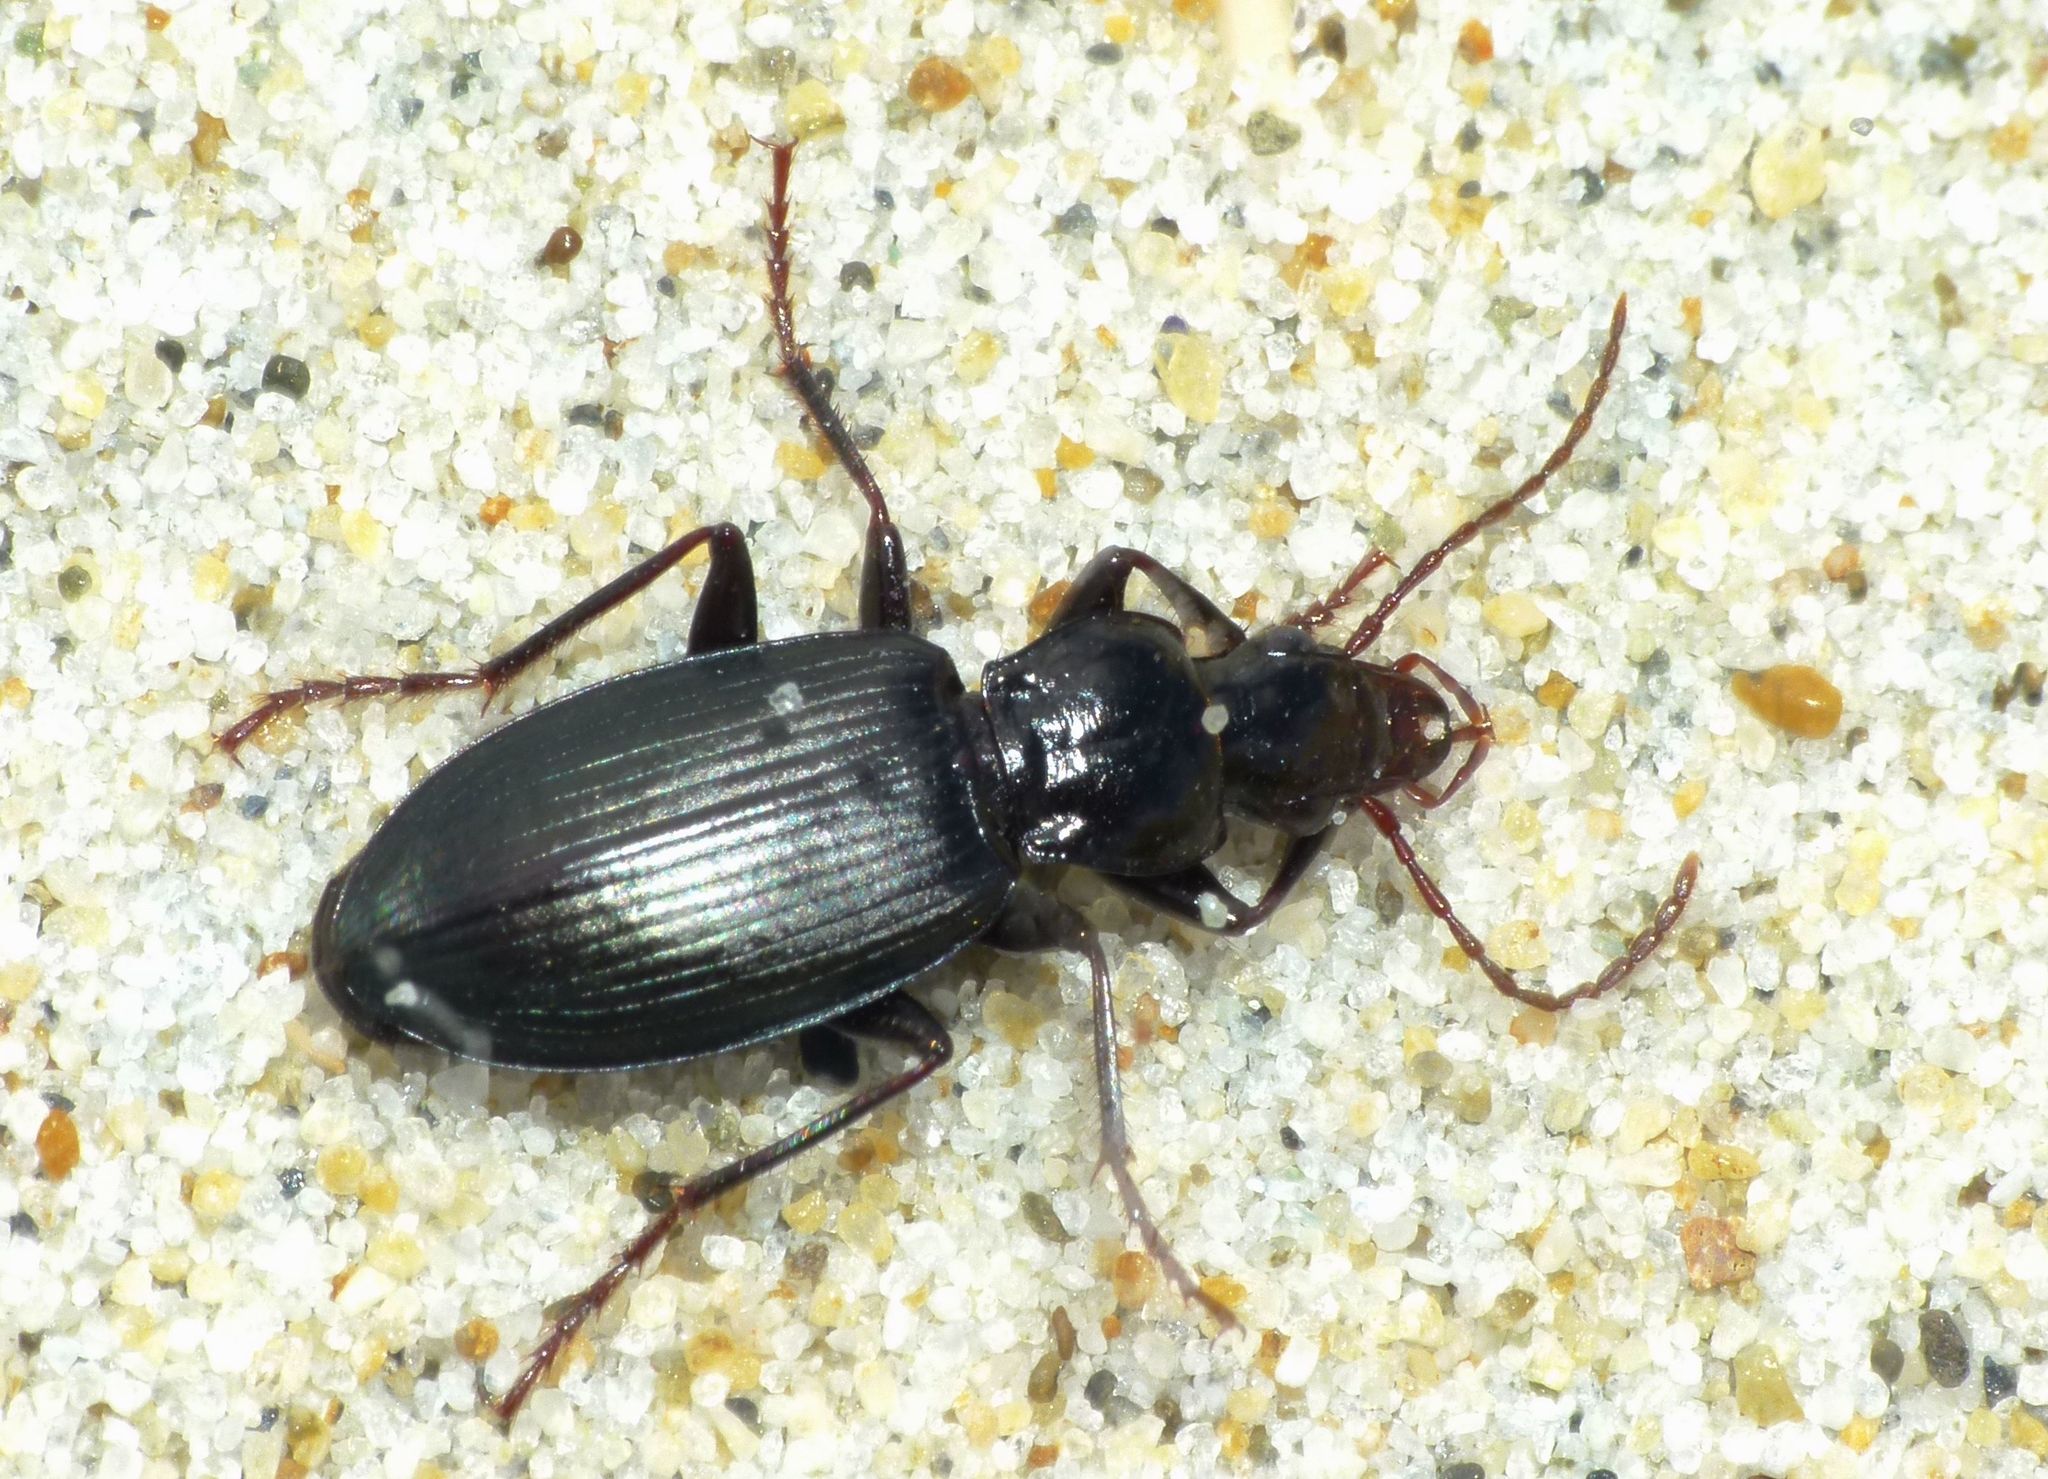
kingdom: Animalia
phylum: Arthropoda
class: Insecta
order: Coleoptera
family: Carabidae
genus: Laemostenus
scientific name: Laemostenus complanatus
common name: Cosmopolitan ground beetle
